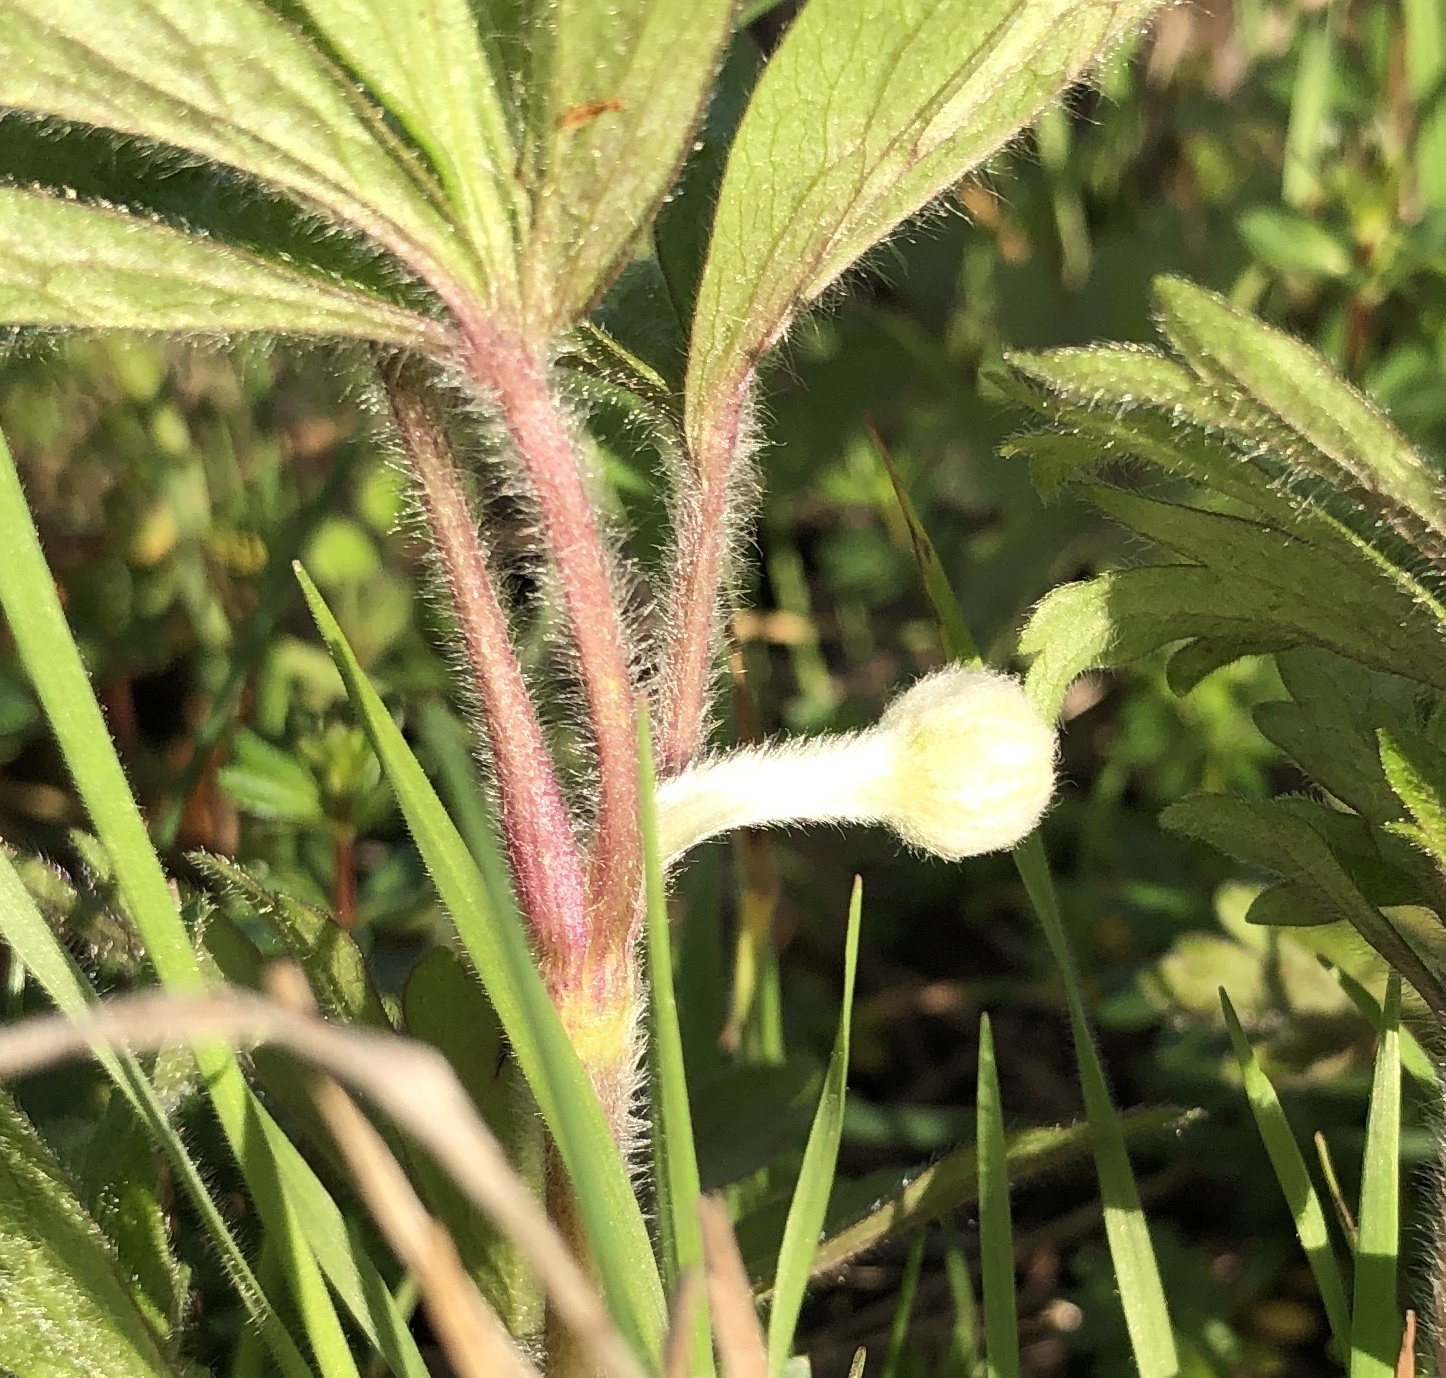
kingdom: Plantae
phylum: Tracheophyta
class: Magnoliopsida
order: Ranunculales
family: Ranunculaceae
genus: Anemone
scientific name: Anemone sylvestris
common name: Snowdrop anemone
